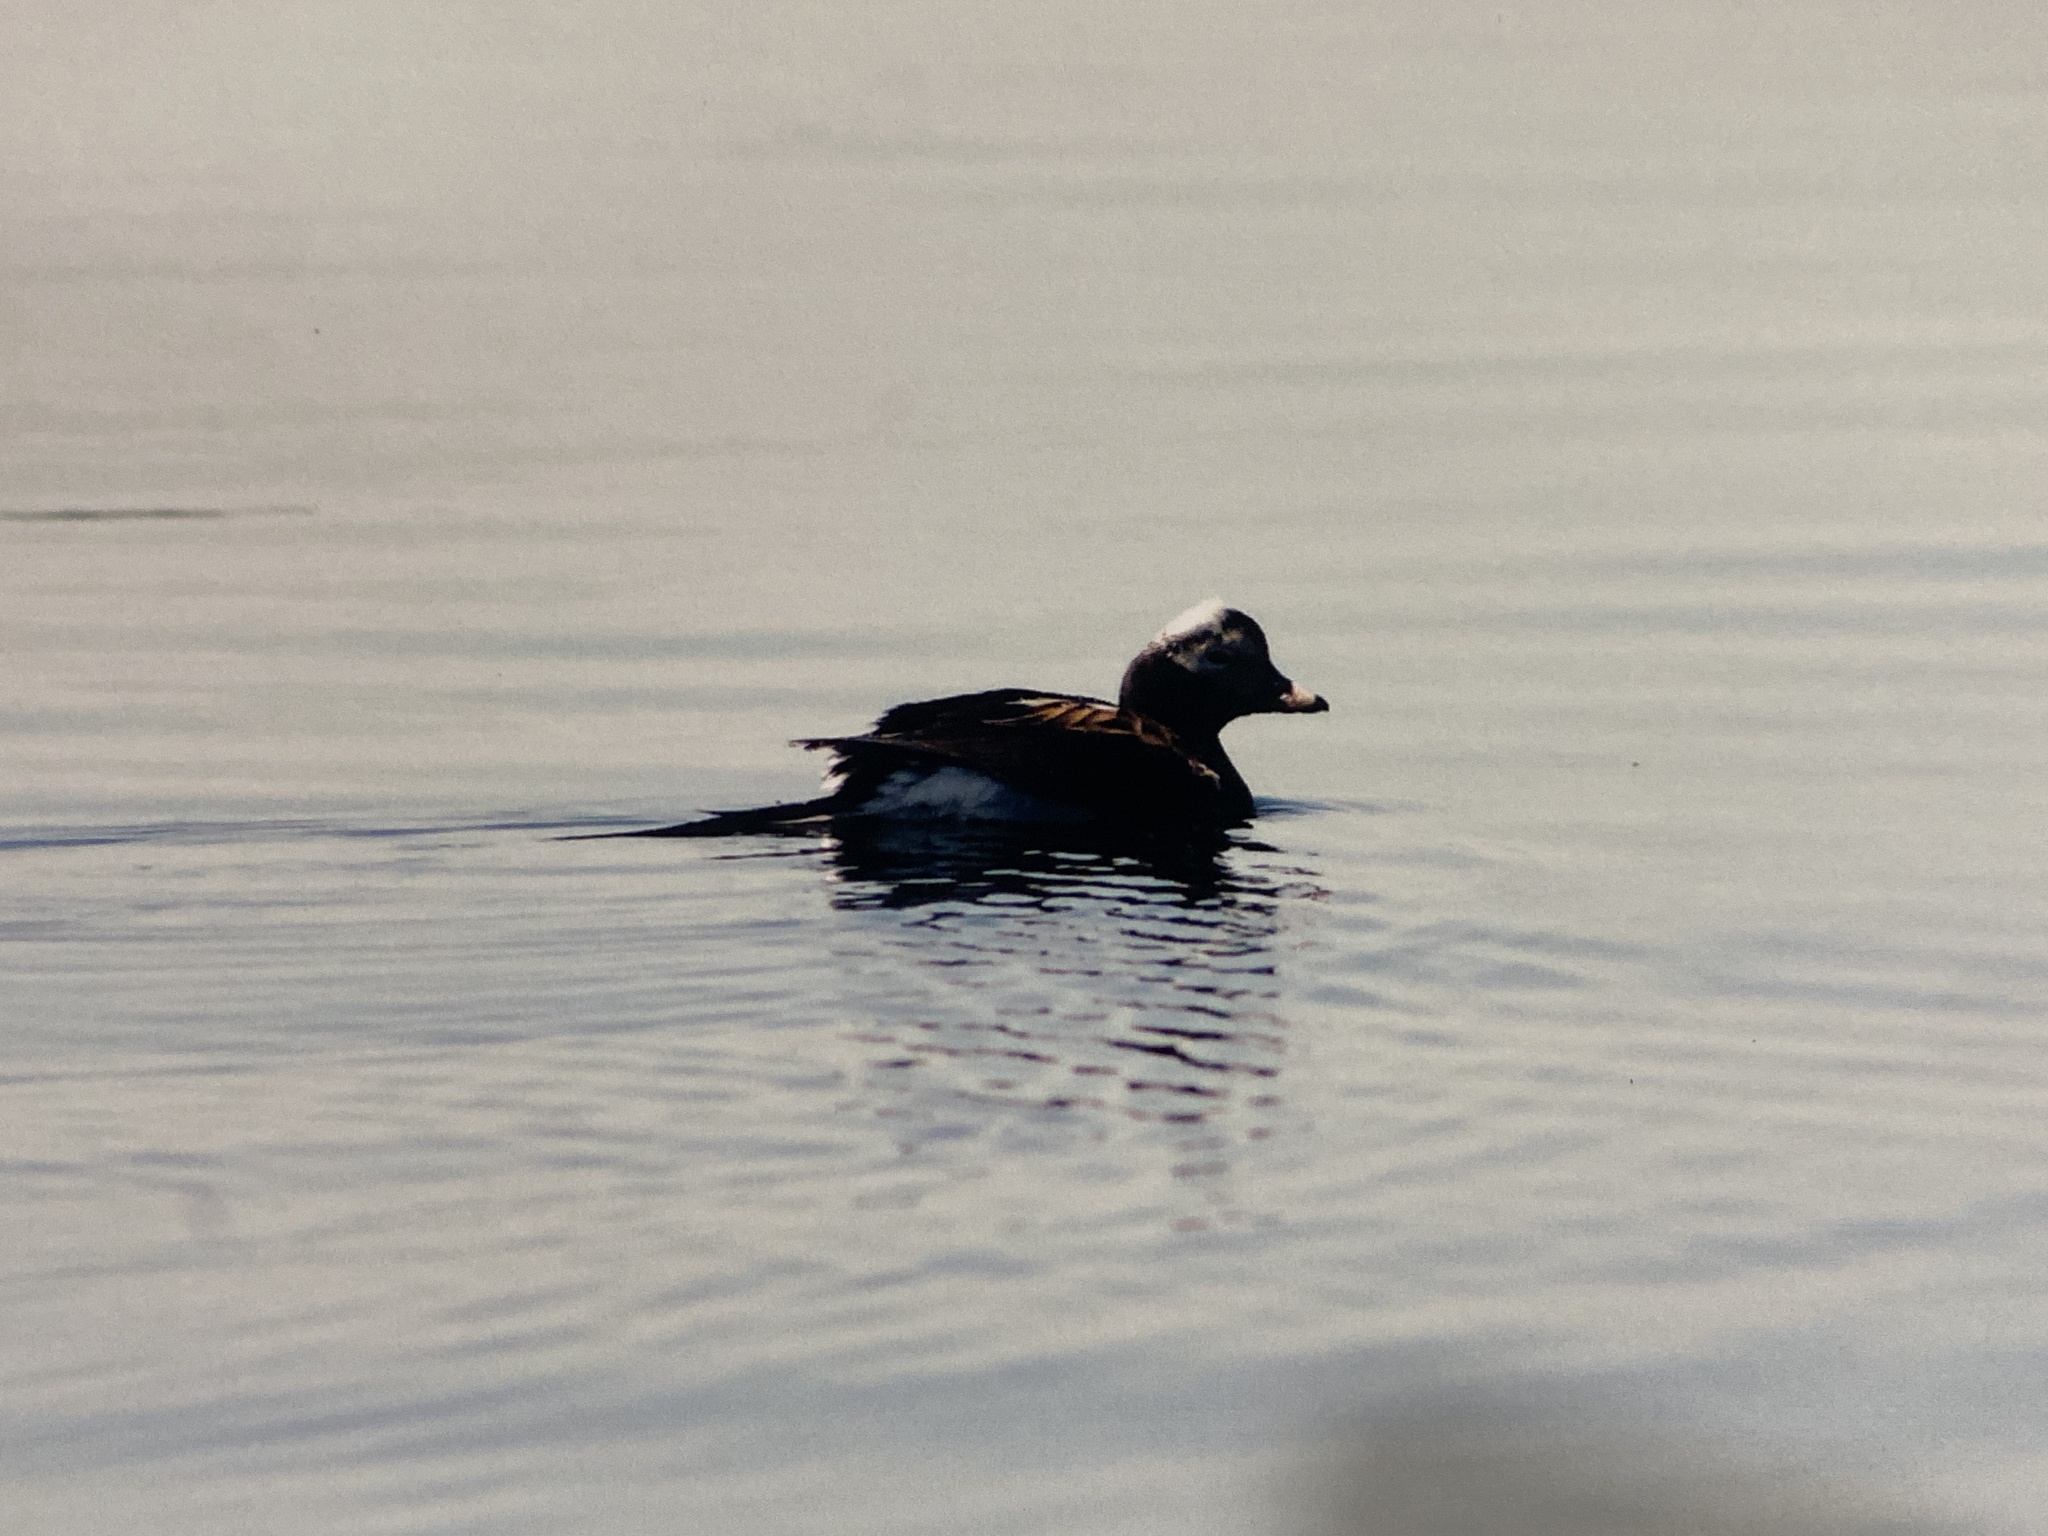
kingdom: Animalia
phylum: Chordata
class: Aves
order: Anseriformes
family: Anatidae
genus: Clangula
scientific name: Clangula hyemalis
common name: Long-tailed duck
